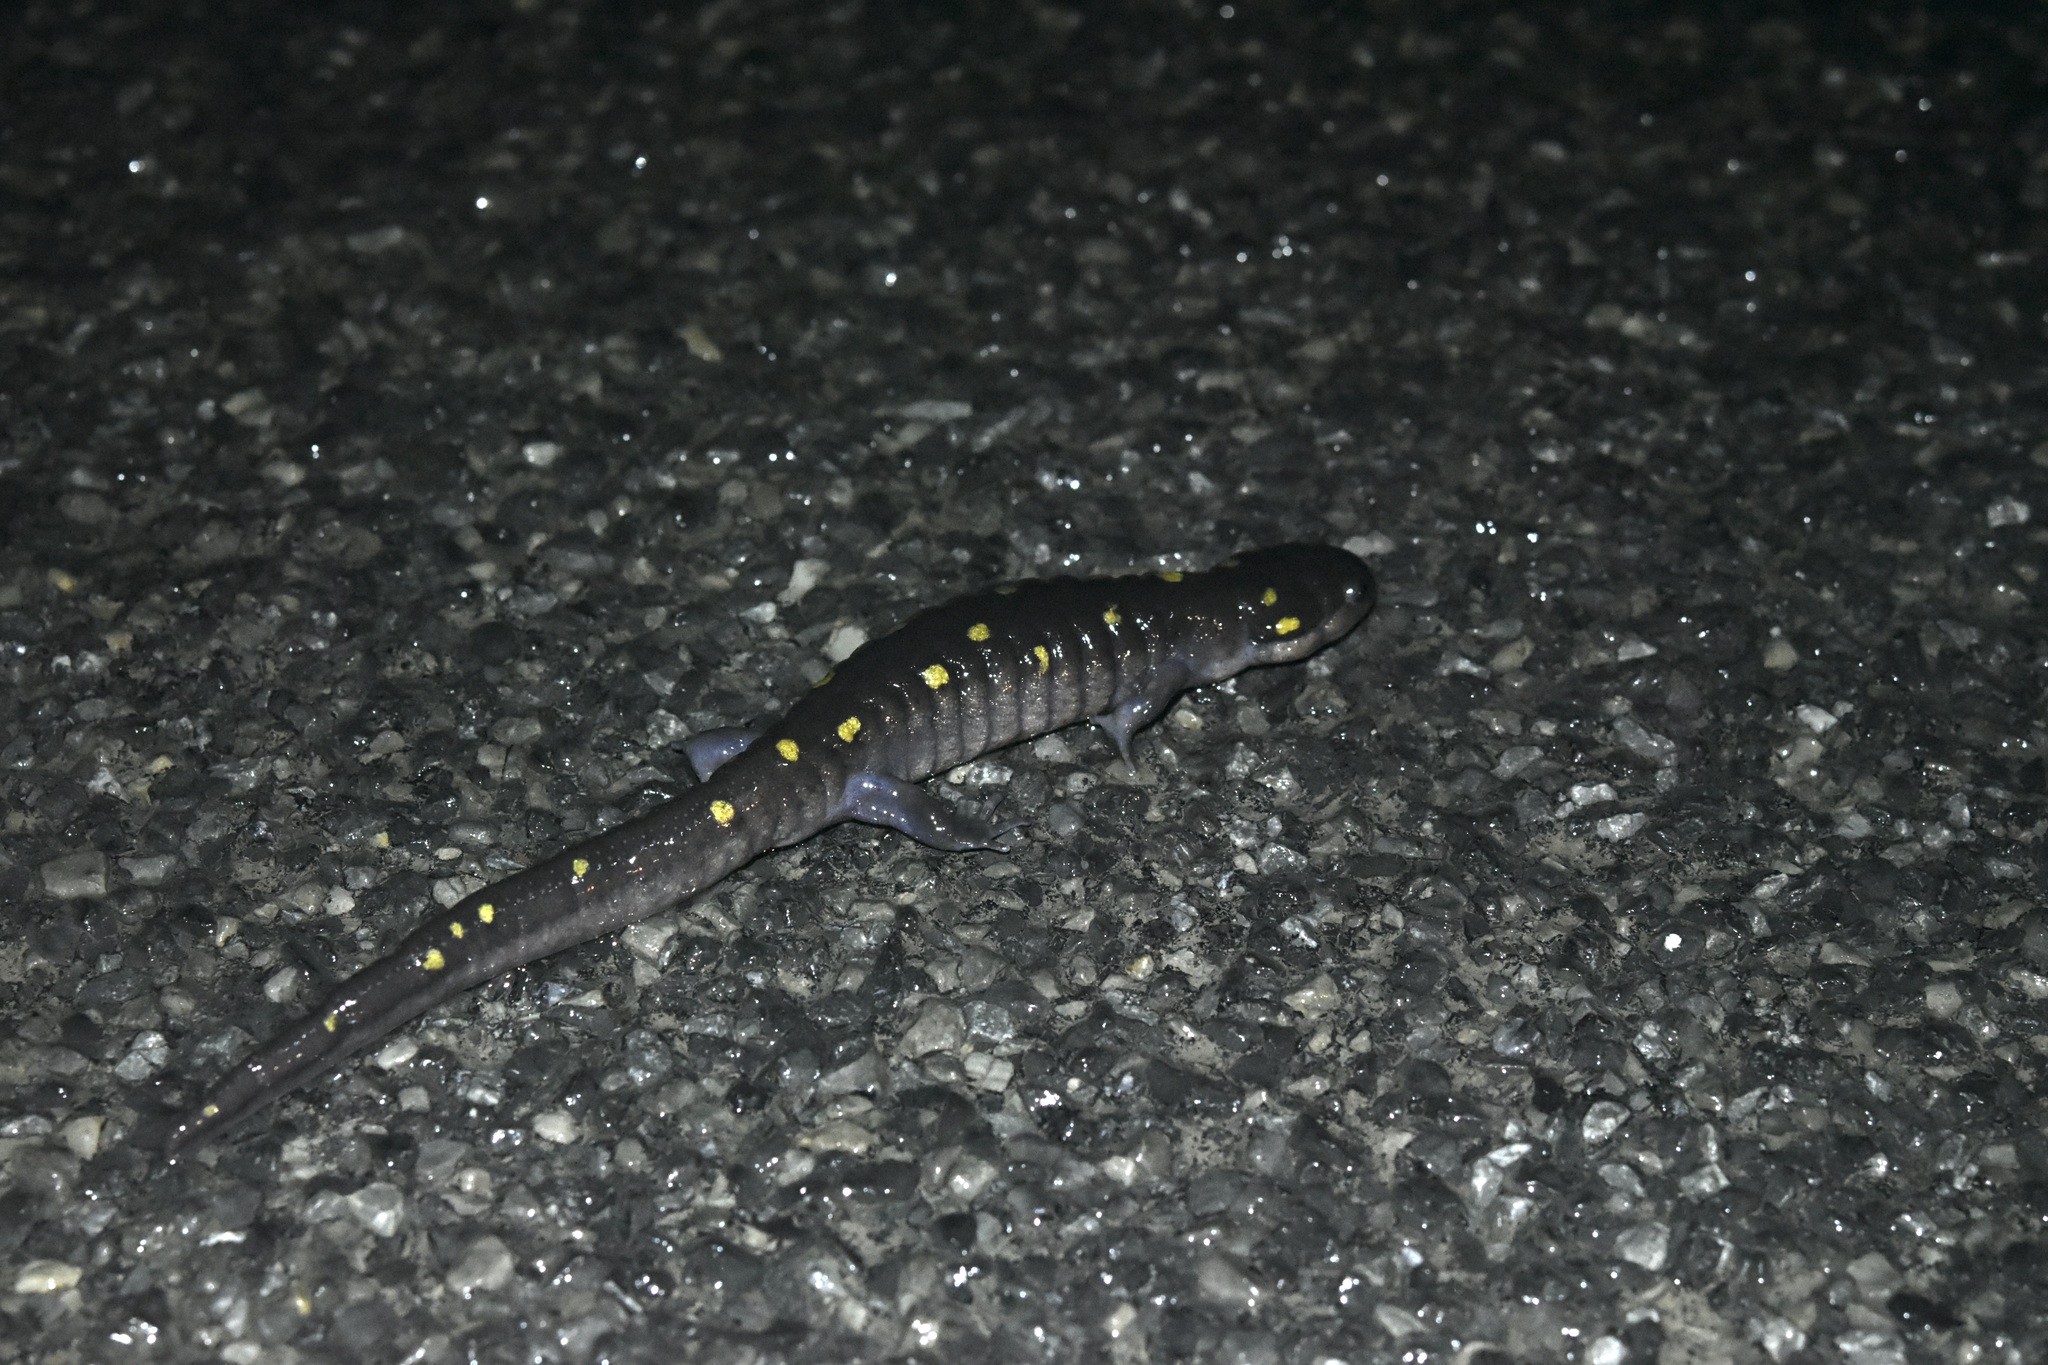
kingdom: Animalia
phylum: Chordata
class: Amphibia
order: Caudata
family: Ambystomatidae
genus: Ambystoma
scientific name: Ambystoma maculatum
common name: Spotted salamander
